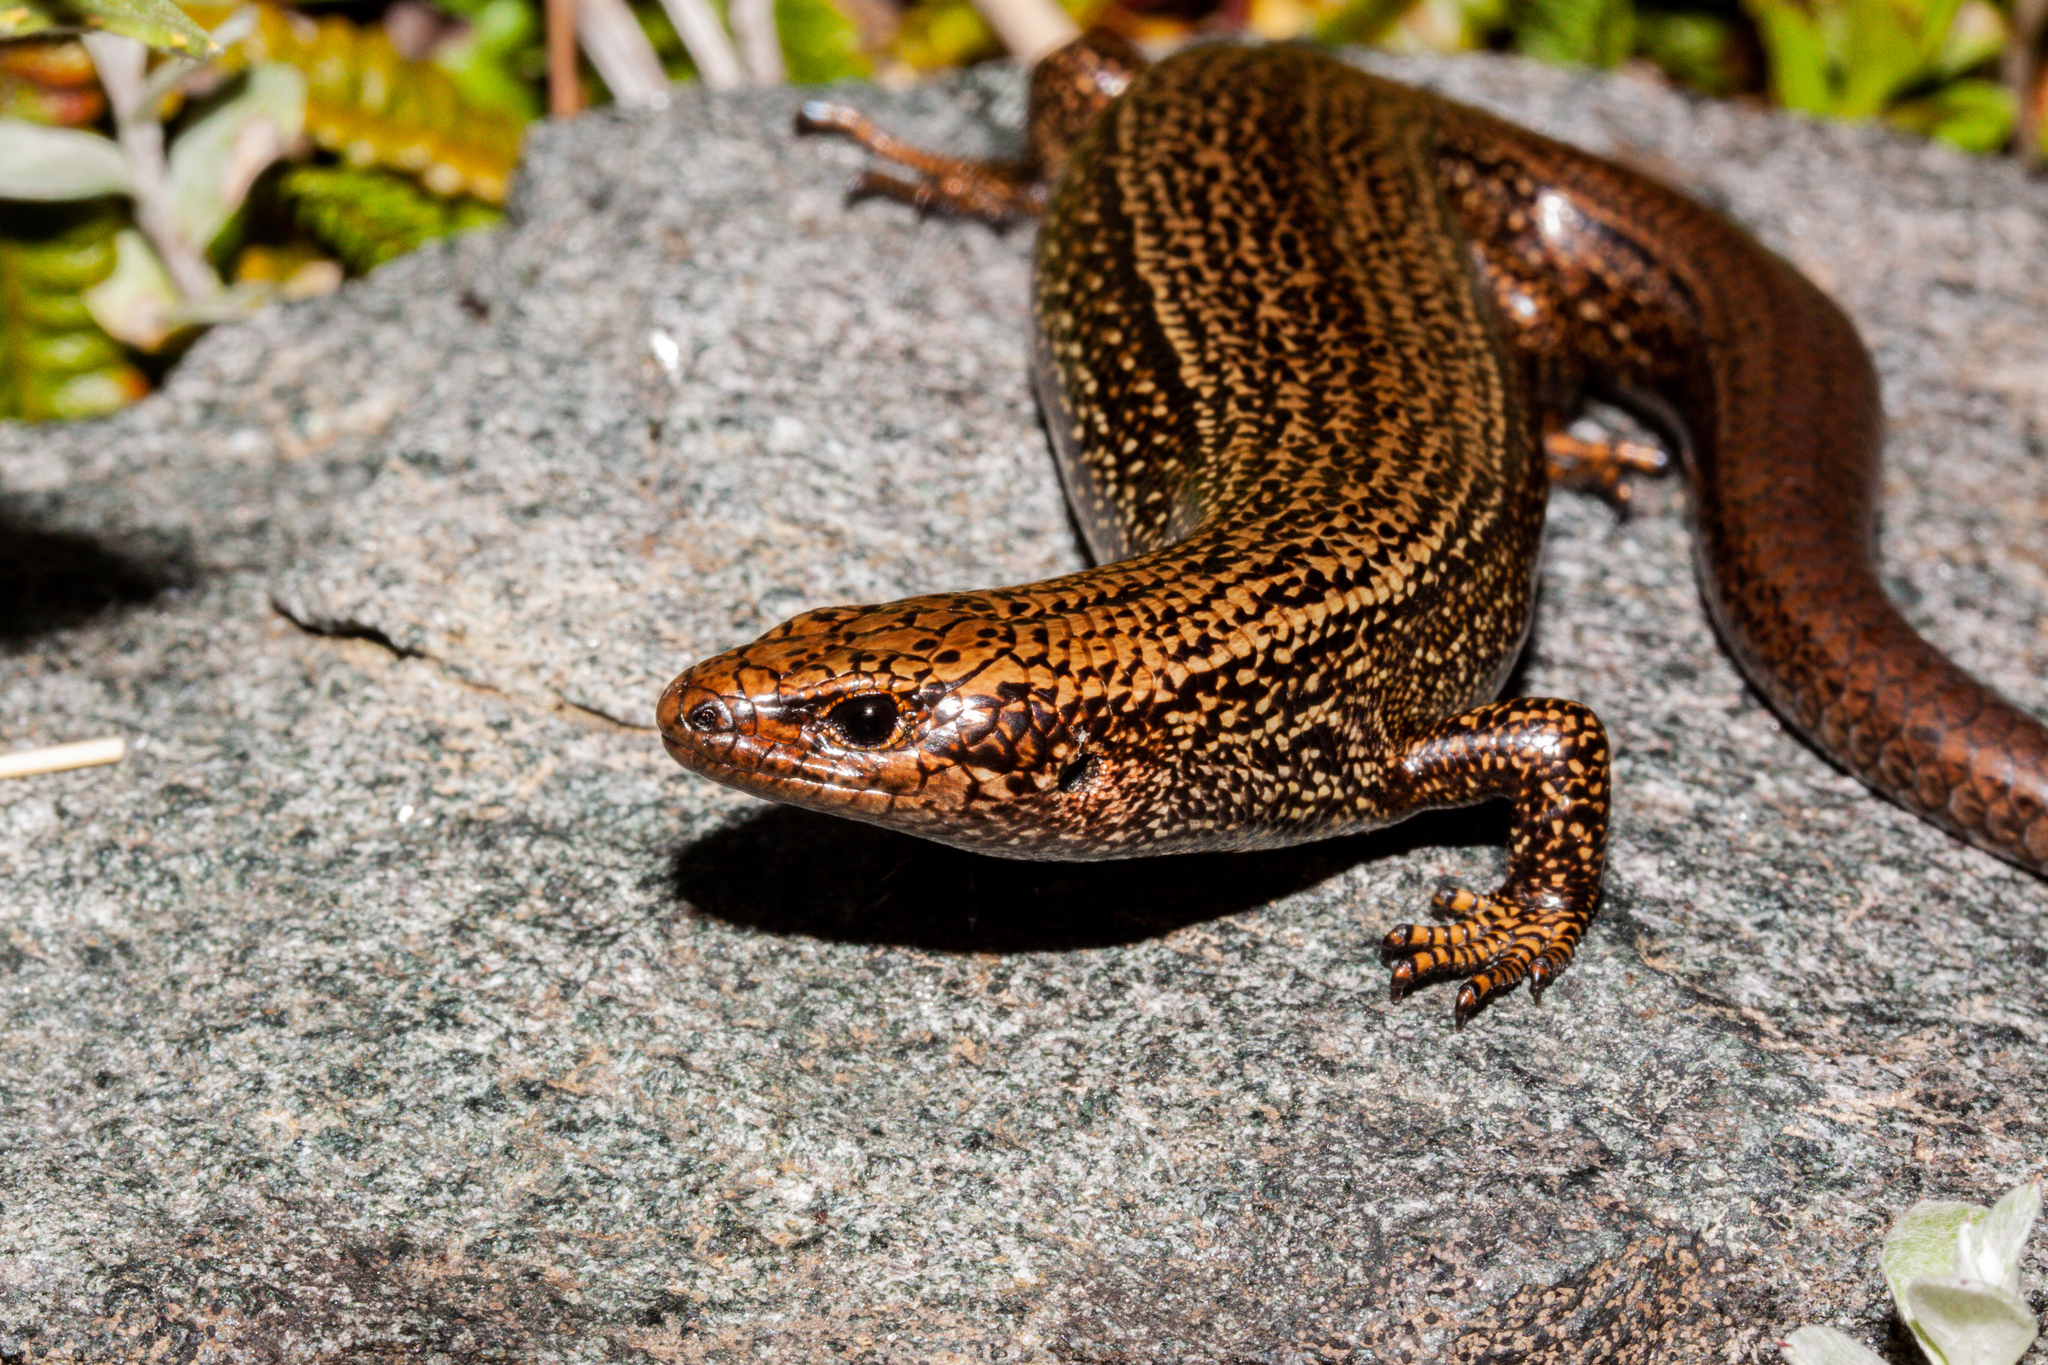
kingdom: Animalia
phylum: Chordata
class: Squamata
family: Scincidae
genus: Oligosoma
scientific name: Oligosoma awakopaka
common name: Awakopaka skink
